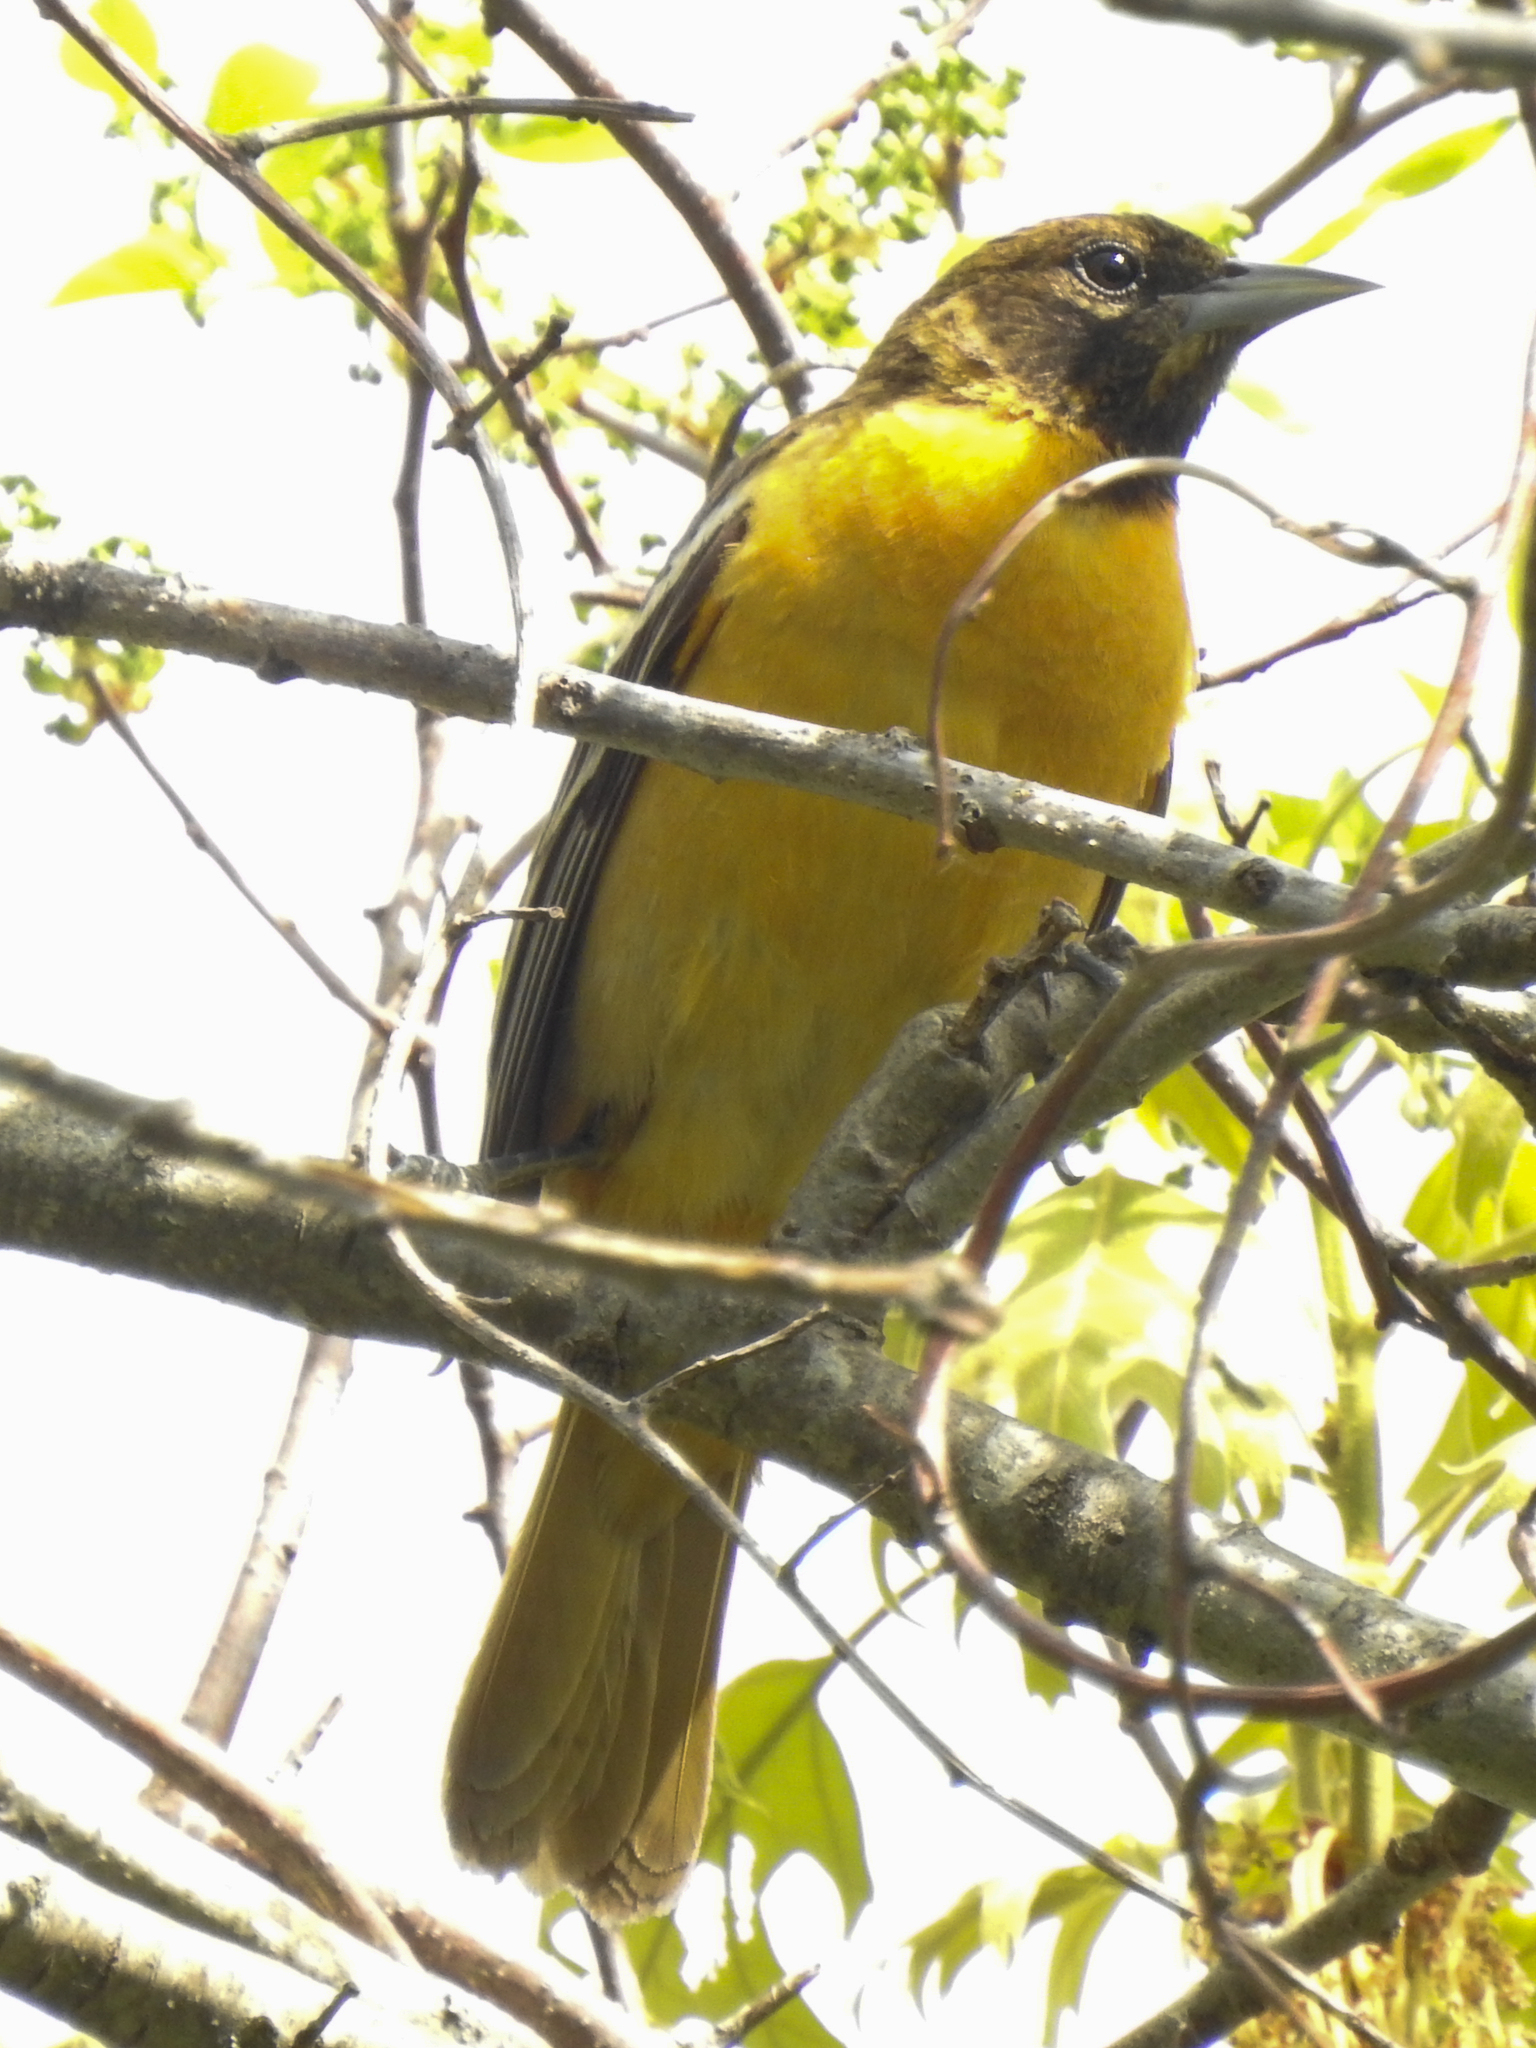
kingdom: Animalia
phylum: Chordata
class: Aves
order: Passeriformes
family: Icteridae
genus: Icterus
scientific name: Icterus galbula
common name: Baltimore oriole
